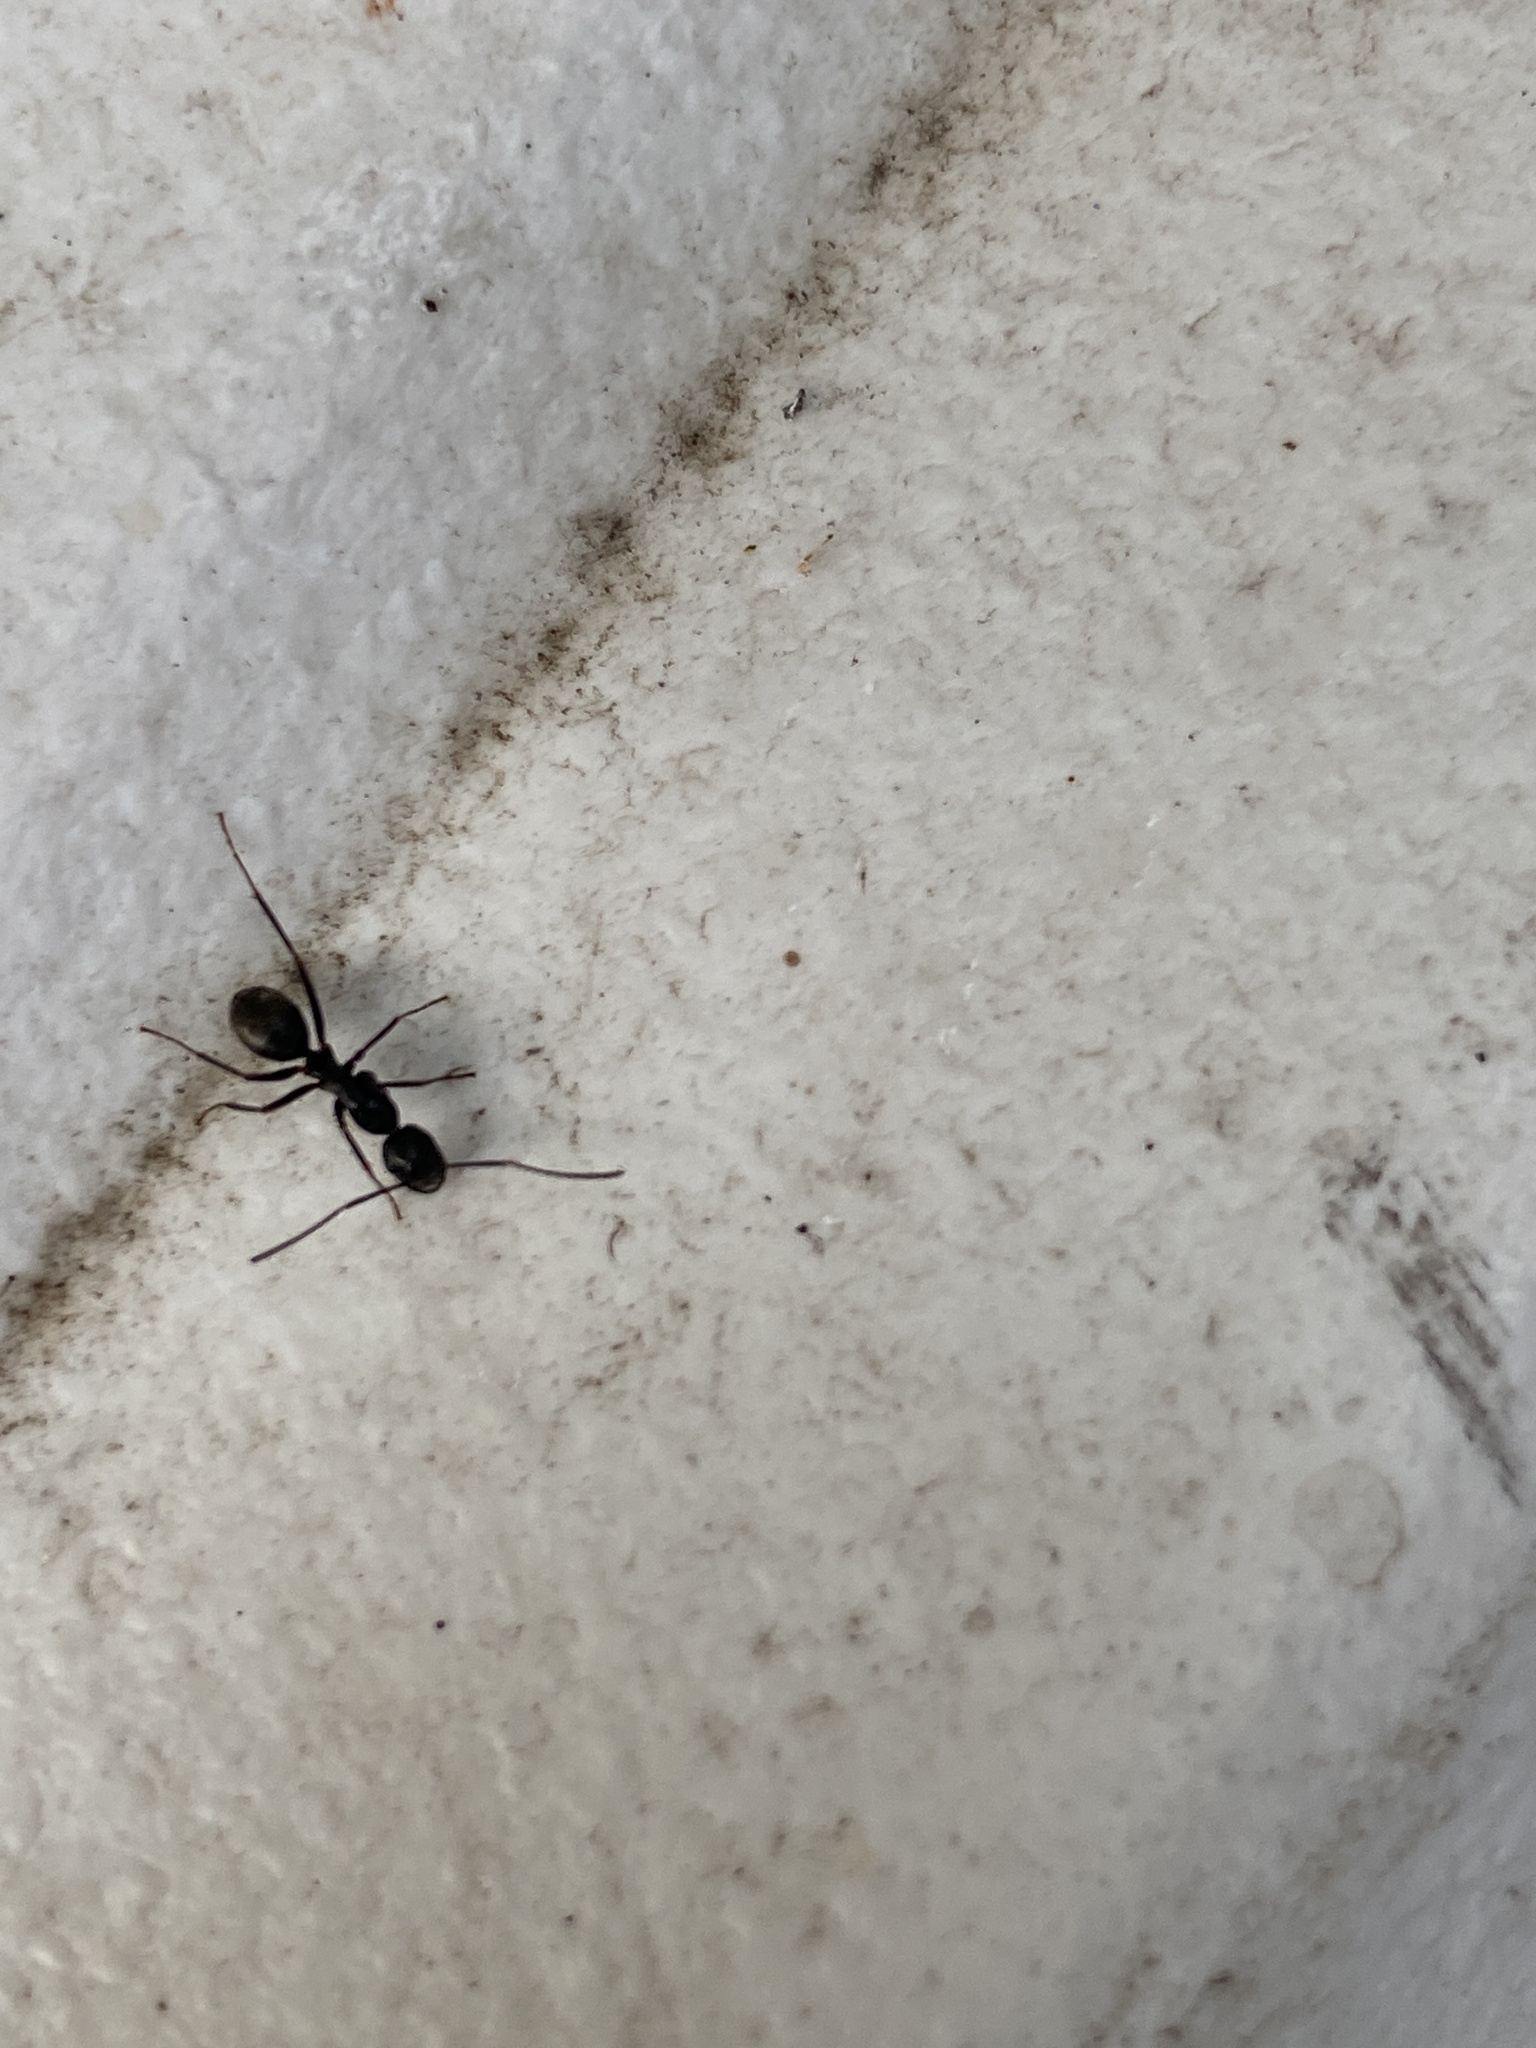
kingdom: Animalia
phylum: Arthropoda
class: Insecta
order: Hymenoptera
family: Formicidae
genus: Camponotus
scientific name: Camponotus pennsylvanicus
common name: Black carpenter ant
